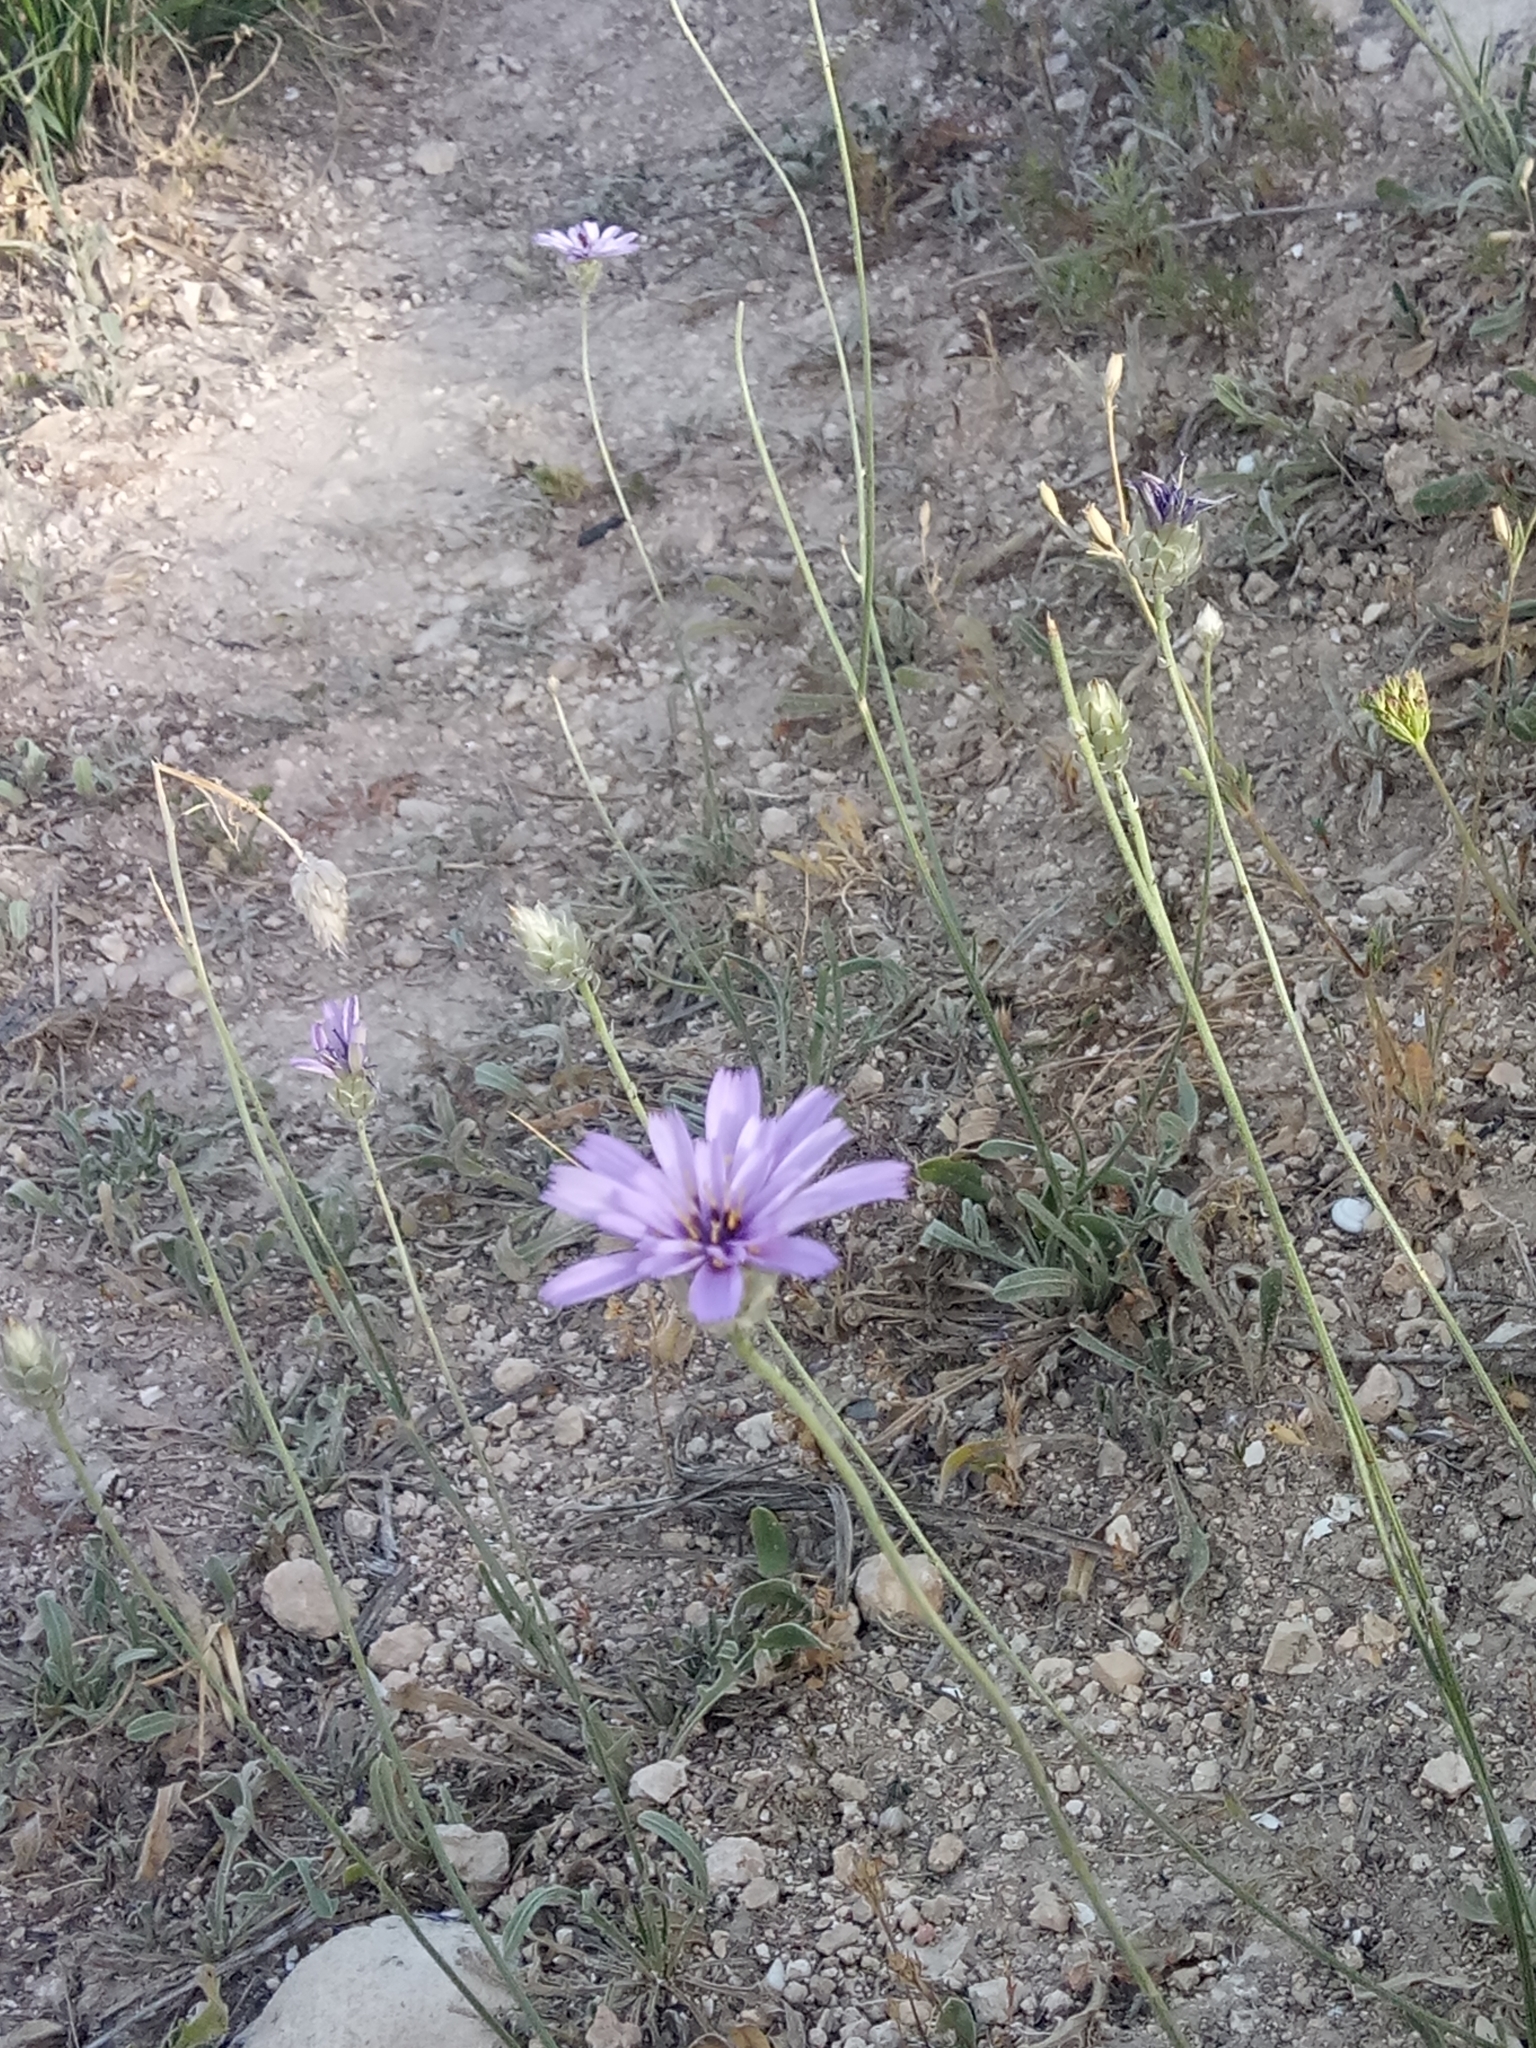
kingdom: Plantae
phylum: Tracheophyta
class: Magnoliopsida
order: Asterales
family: Asteraceae
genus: Catananche
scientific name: Catananche caerulea
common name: Blue cupidone
